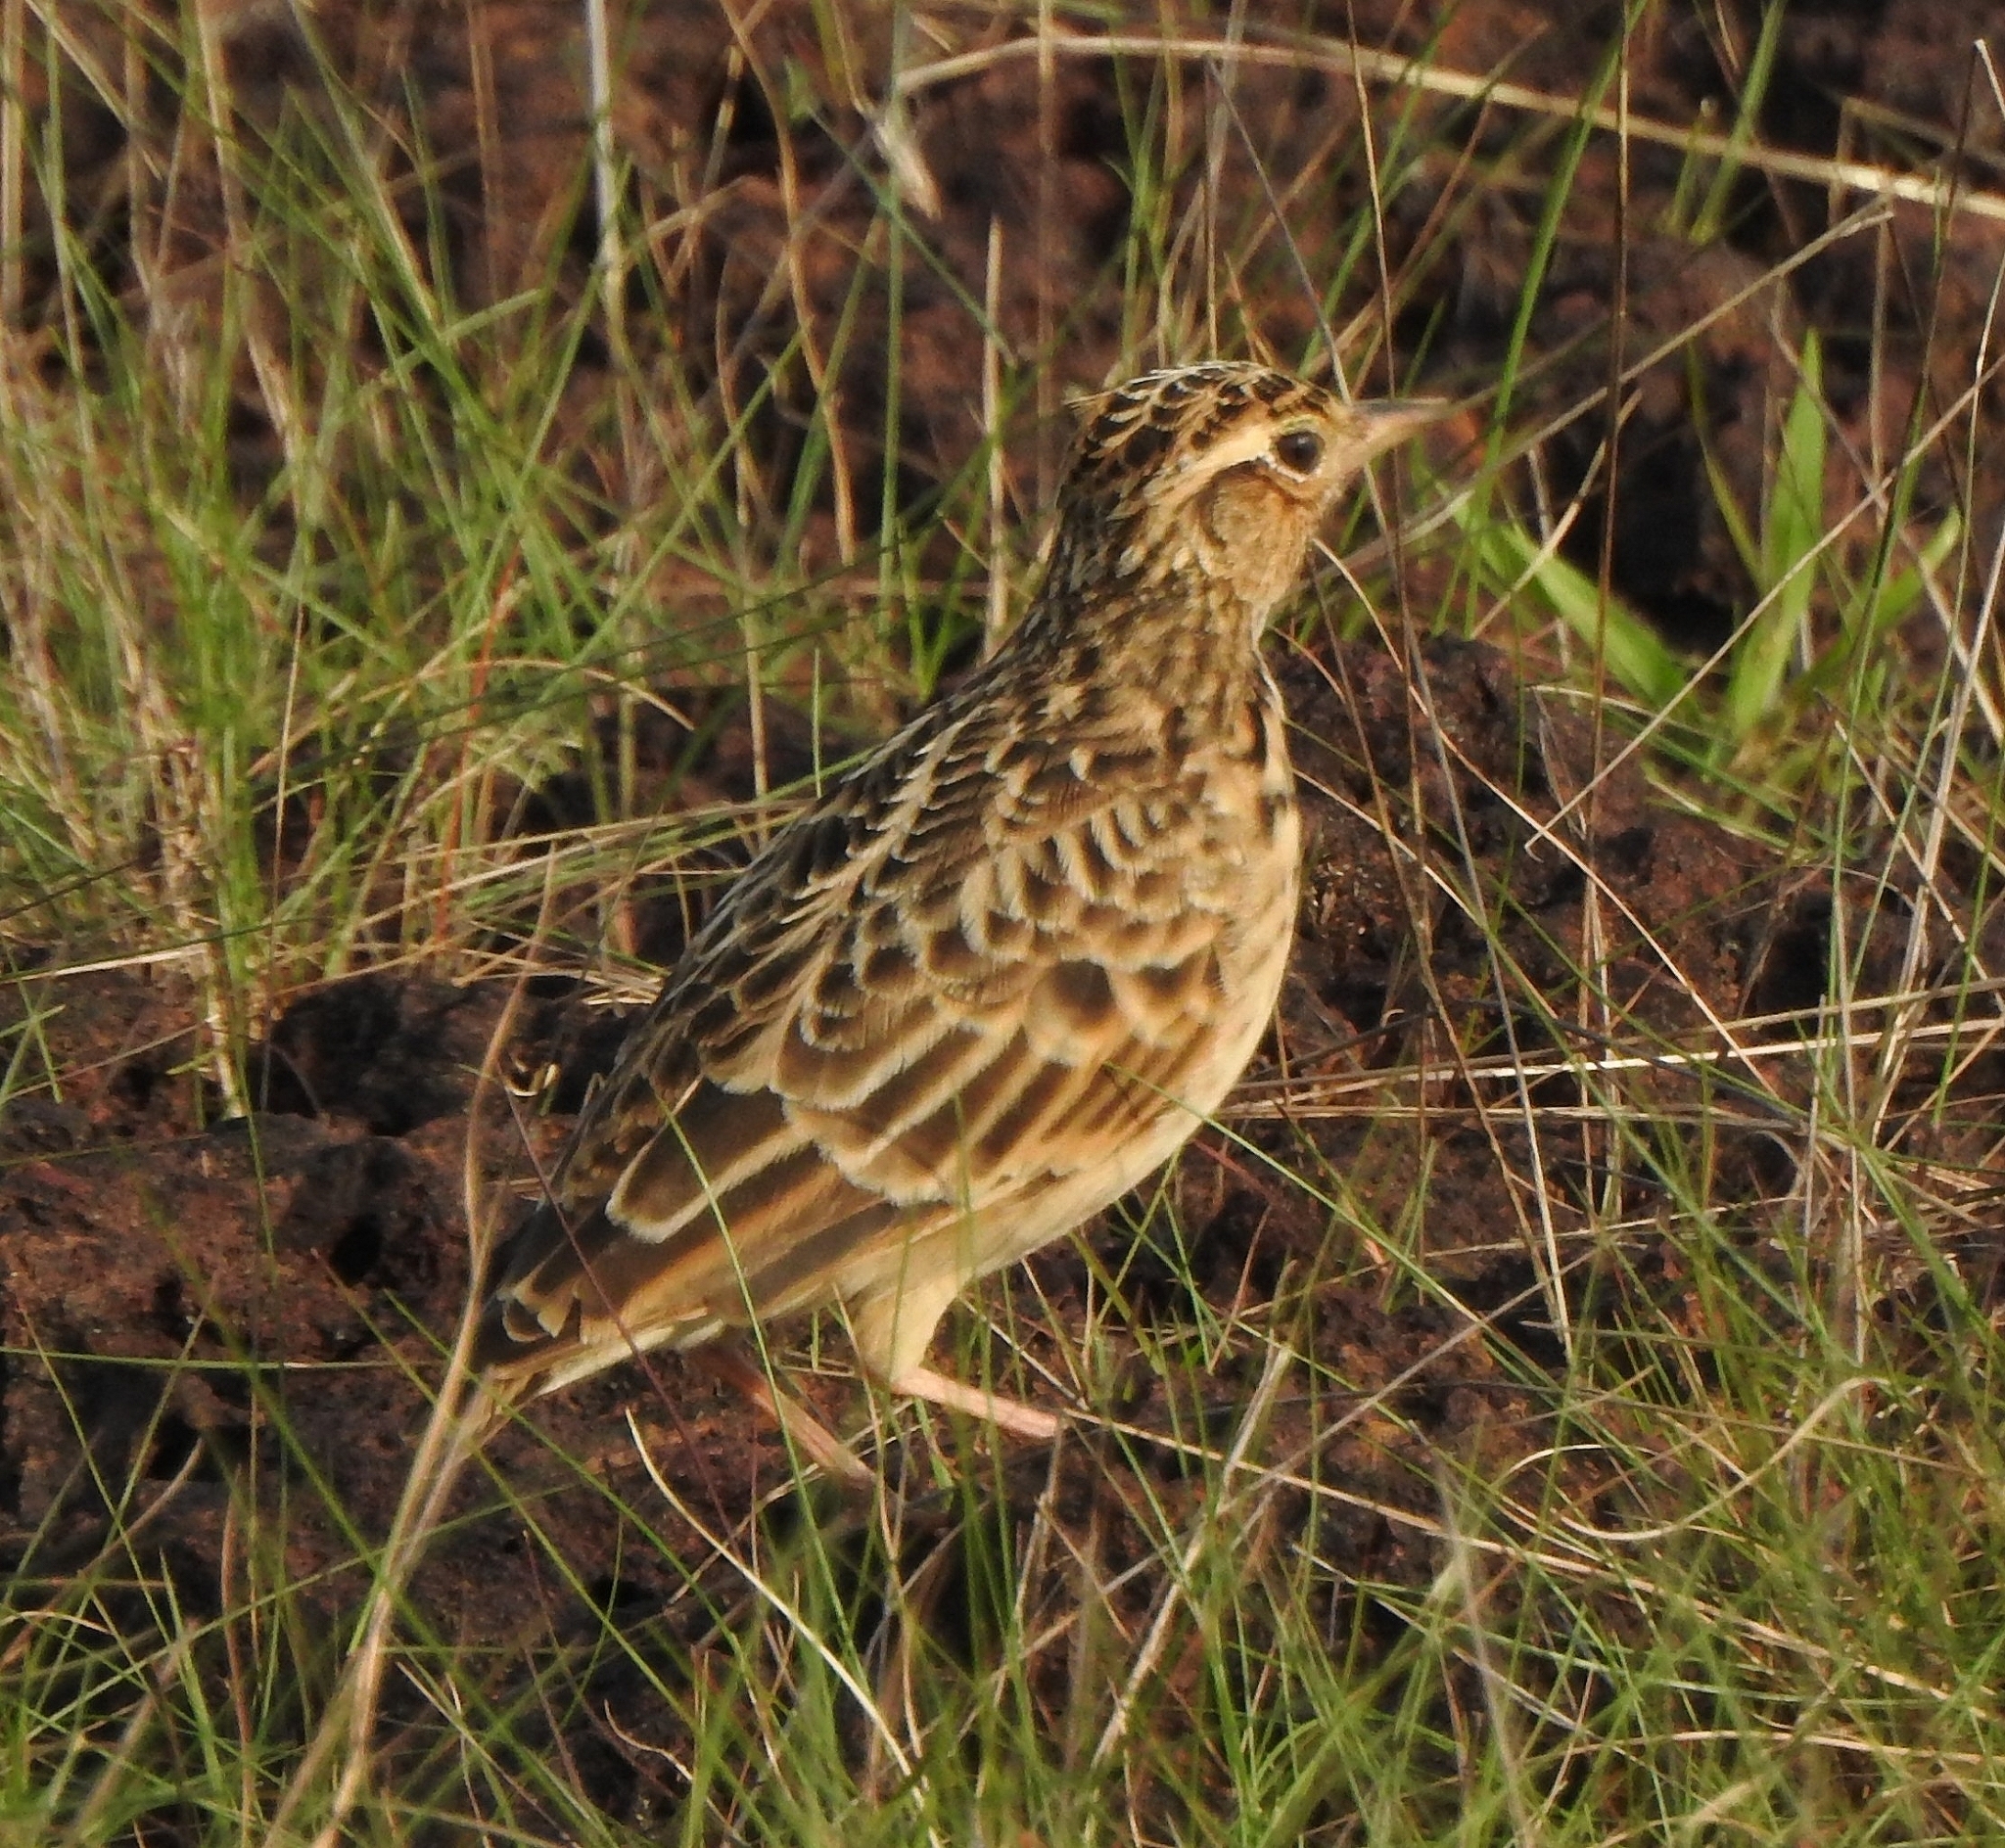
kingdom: Animalia
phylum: Chordata
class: Aves
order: Passeriformes
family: Alaudidae
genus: Alauda
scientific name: Alauda gulgula
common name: Oriental skylark
